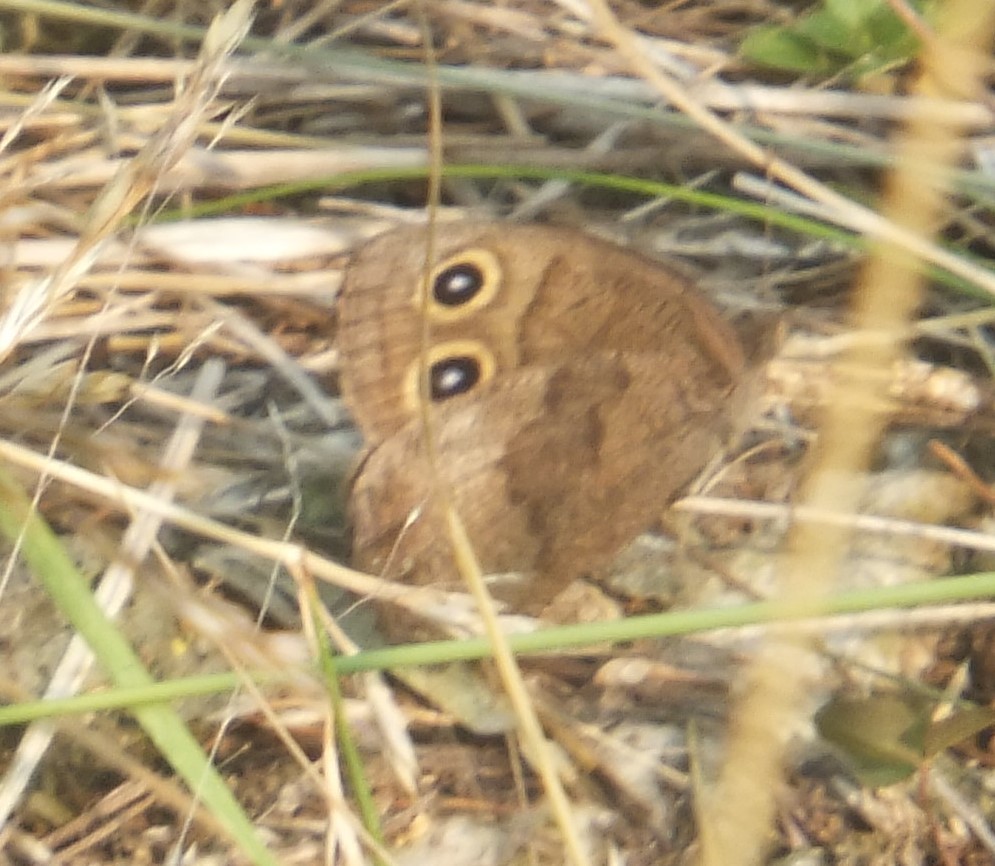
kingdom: Animalia
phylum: Arthropoda
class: Insecta
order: Lepidoptera
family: Nymphalidae
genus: Cercyonis
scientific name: Cercyonis pegala
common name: Common wood-nymph
